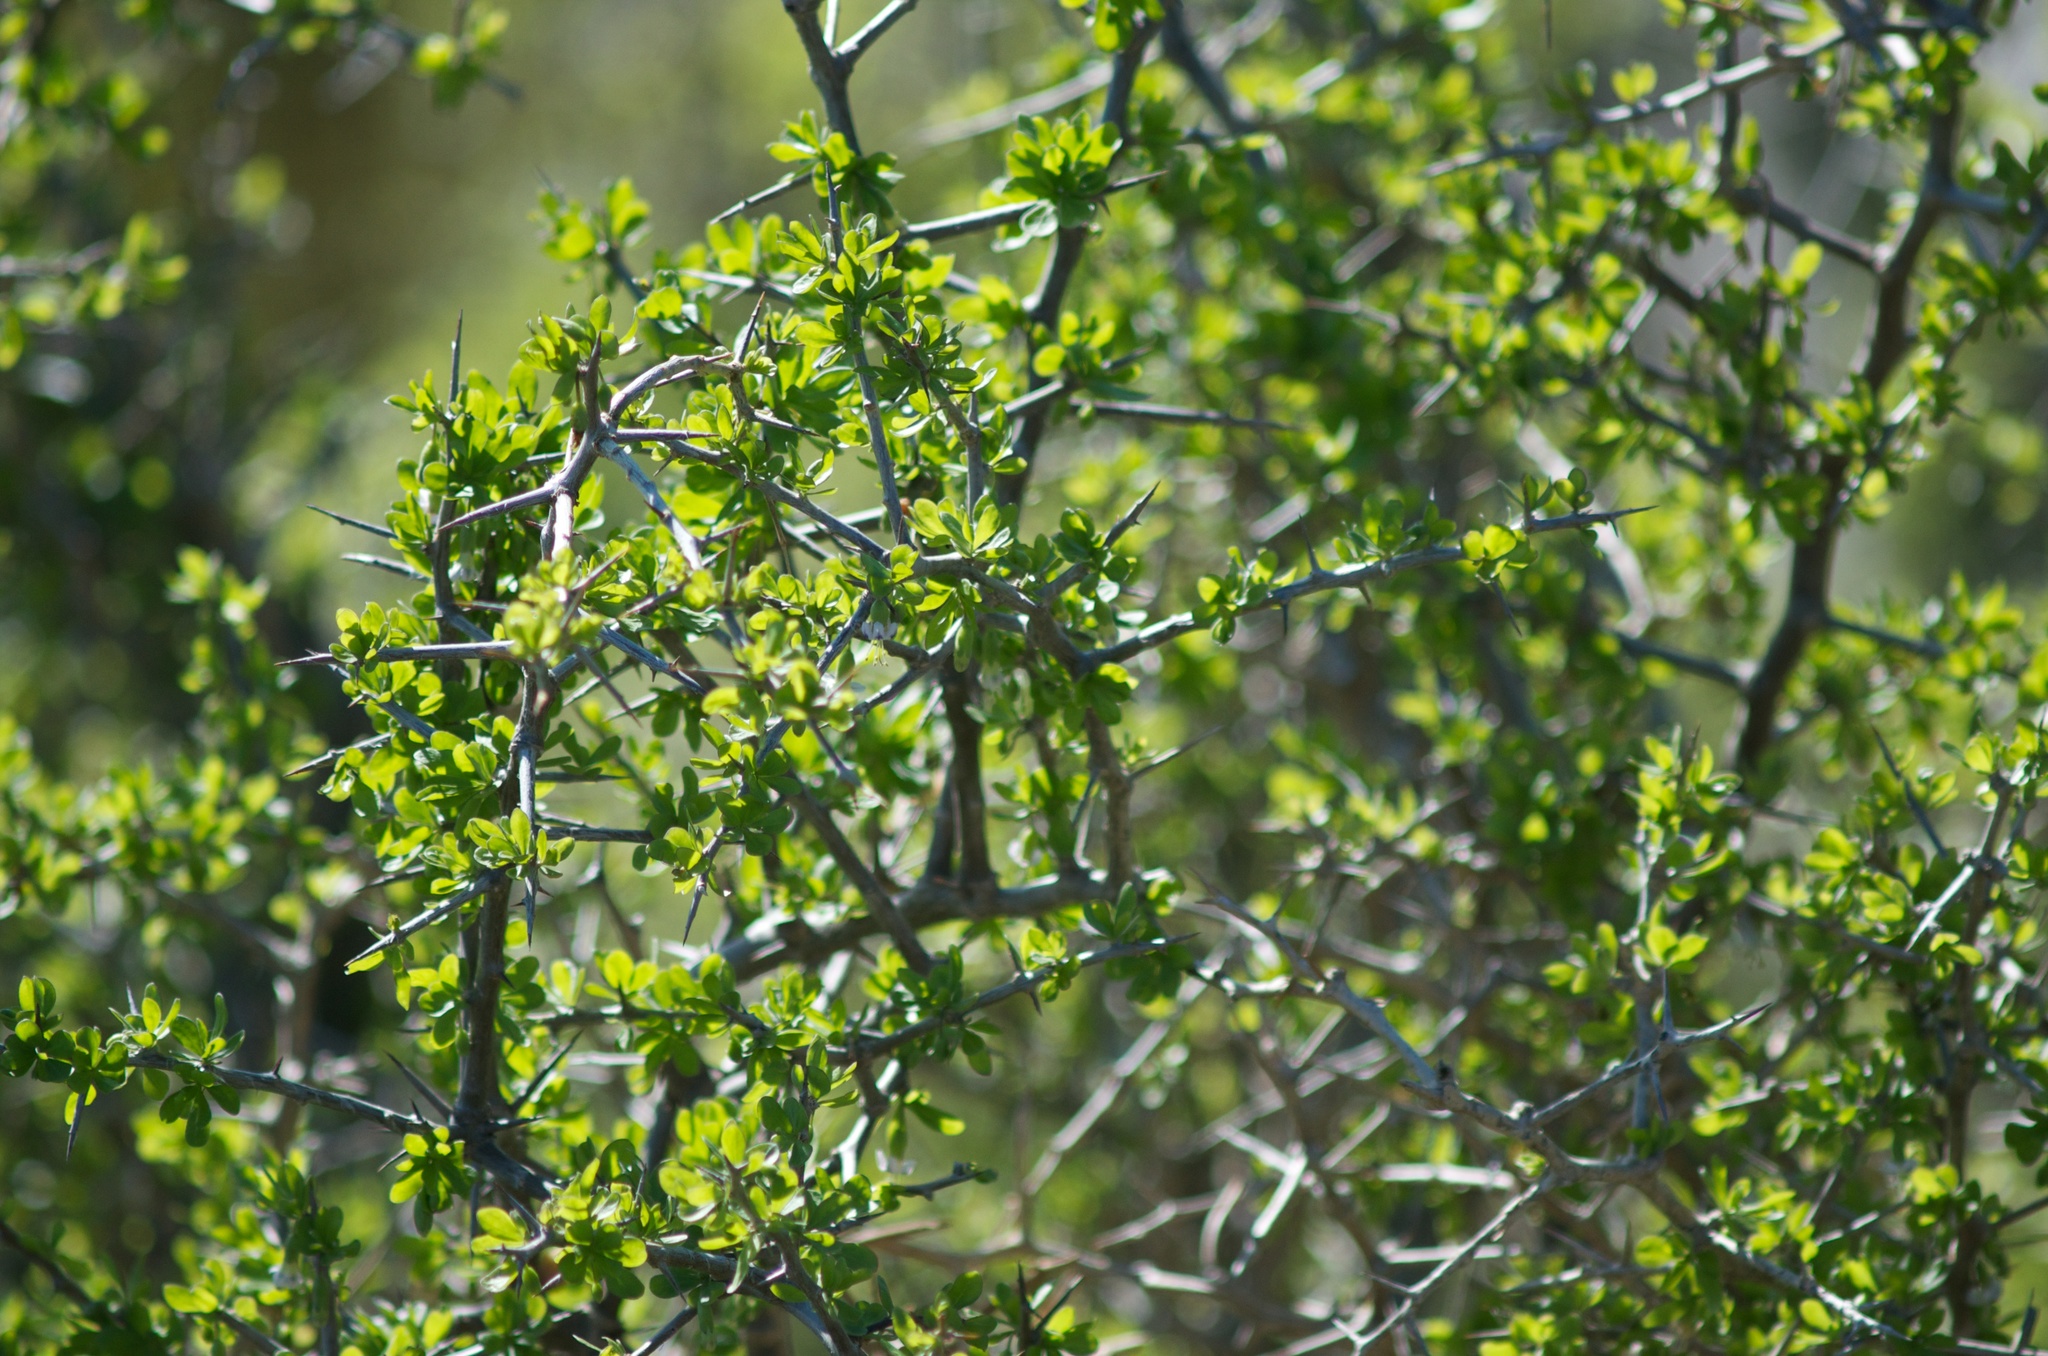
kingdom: Plantae
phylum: Tracheophyta
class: Magnoliopsida
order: Solanales
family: Solanaceae
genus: Lycium
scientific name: Lycium ferocissimum
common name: African boxthorn
